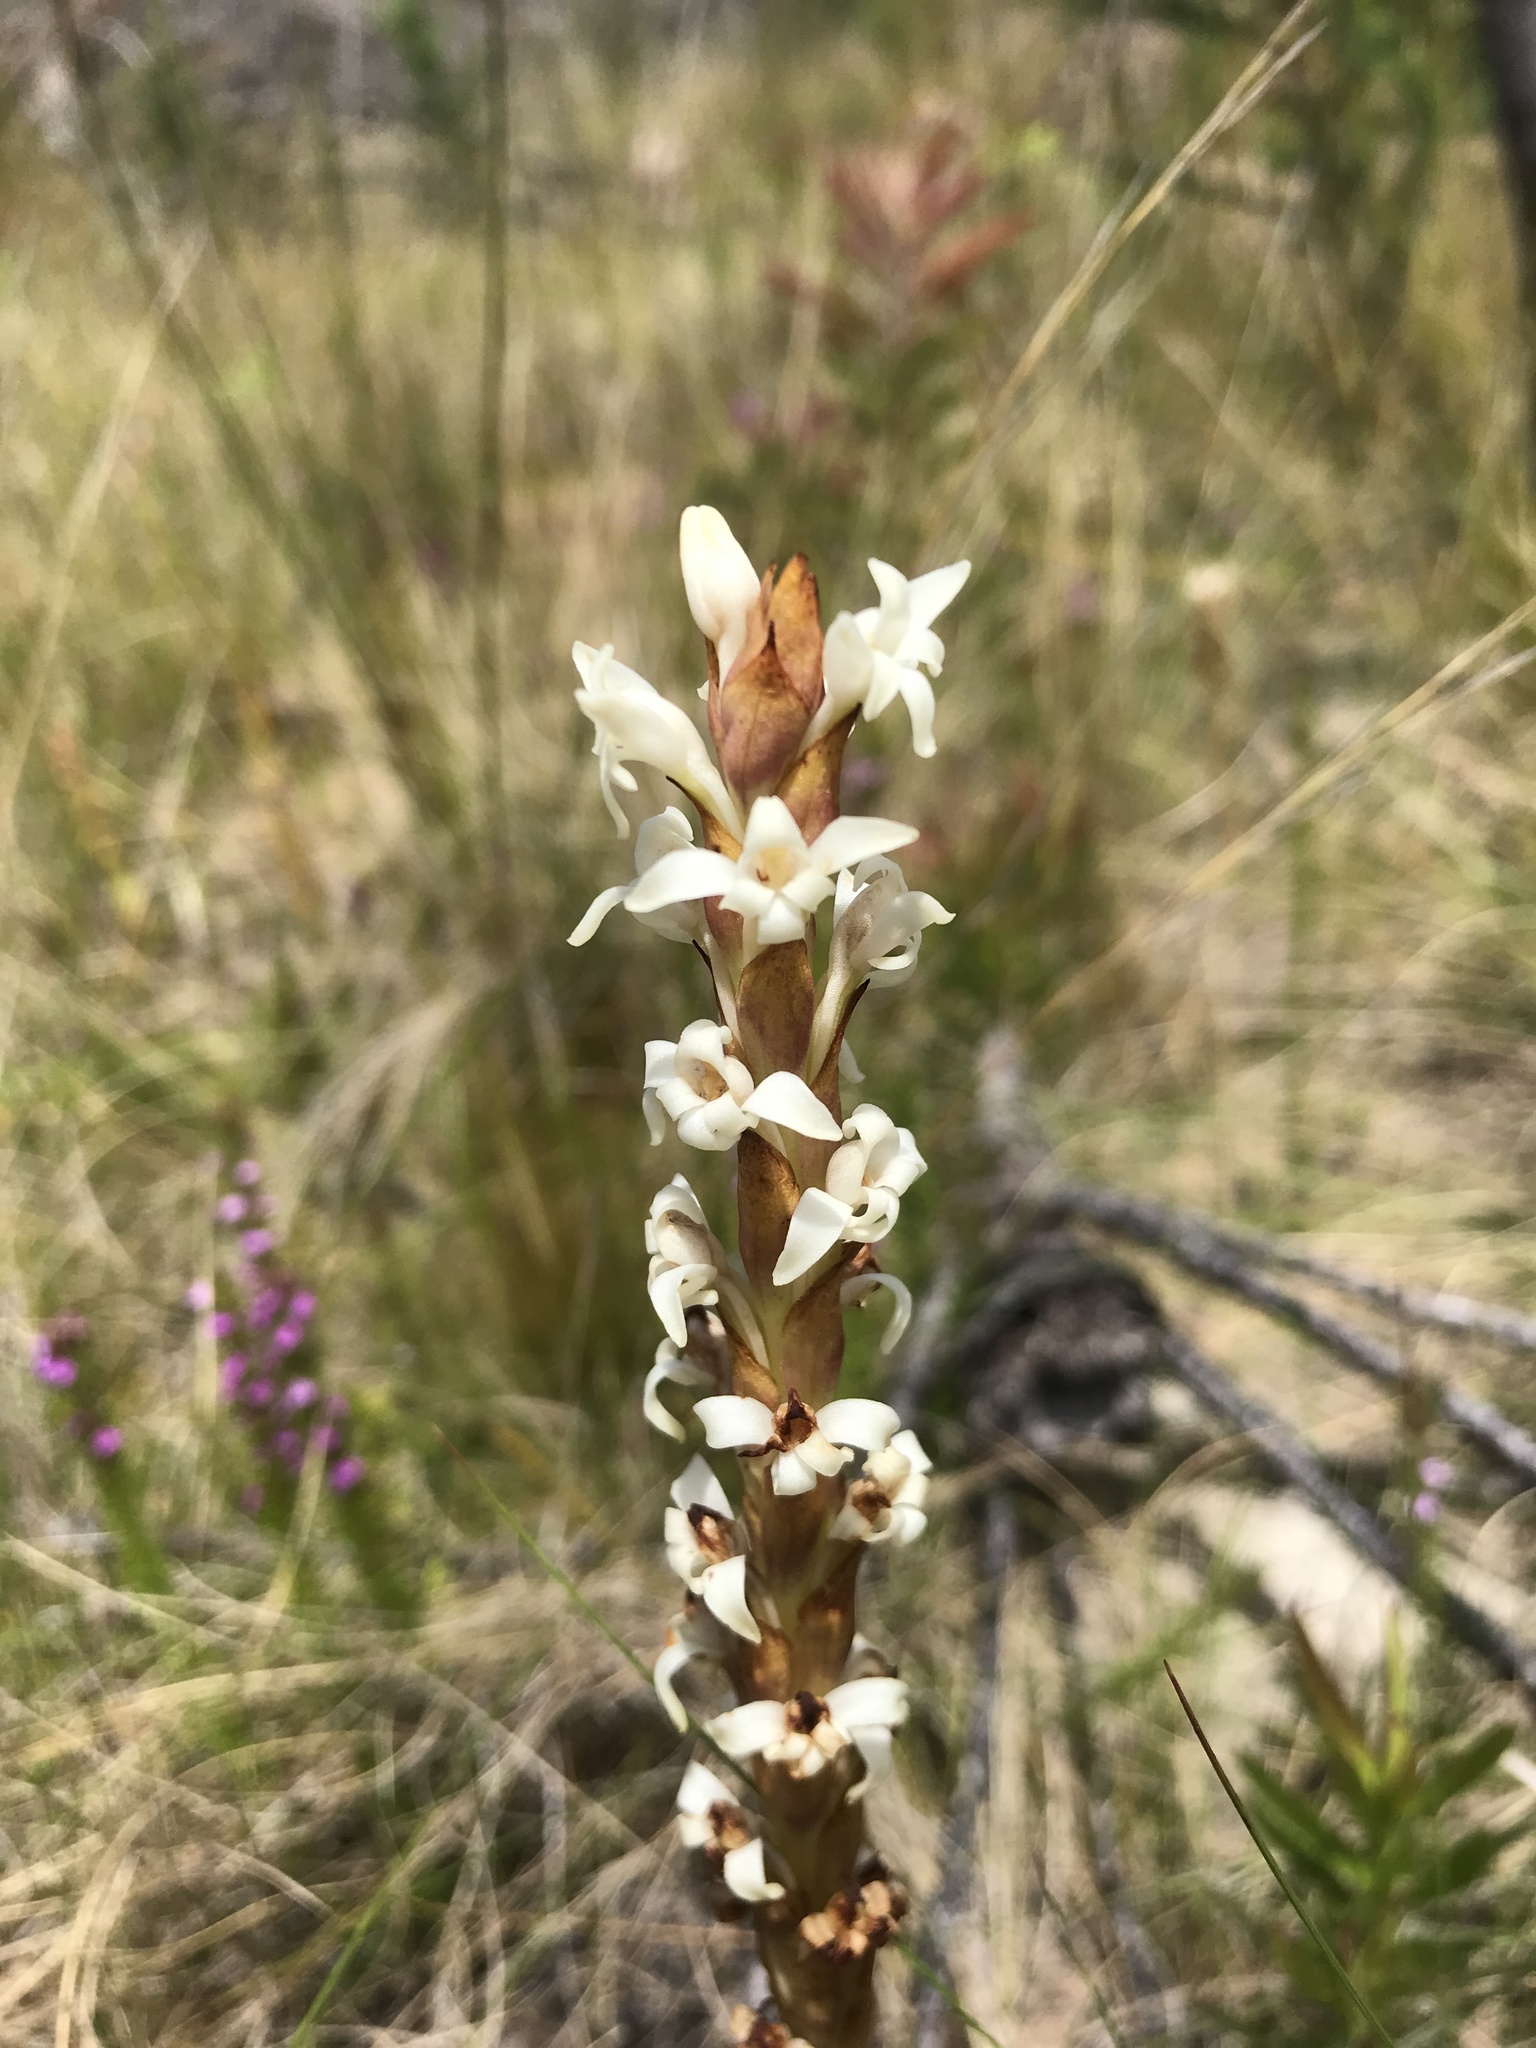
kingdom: Plantae
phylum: Tracheophyta
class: Liliopsida
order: Asparagales
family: Orchidaceae
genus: Satyrium
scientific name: Satyrium stenopetalum
